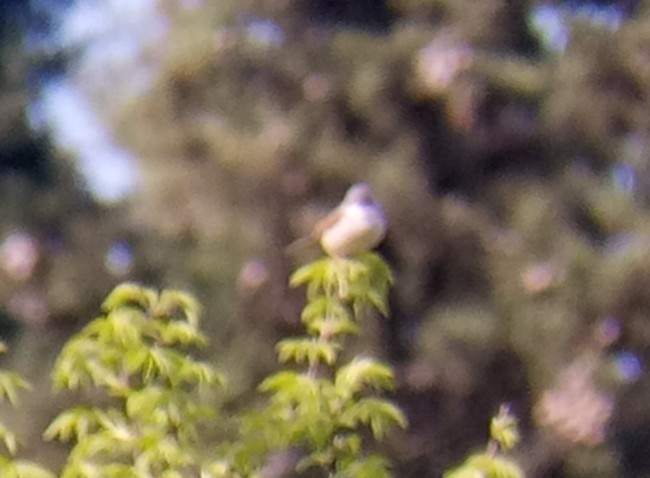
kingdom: Animalia
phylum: Chordata
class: Aves
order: Passeriformes
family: Sylviidae
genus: Sylvia
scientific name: Sylvia communis
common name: Common whitethroat
